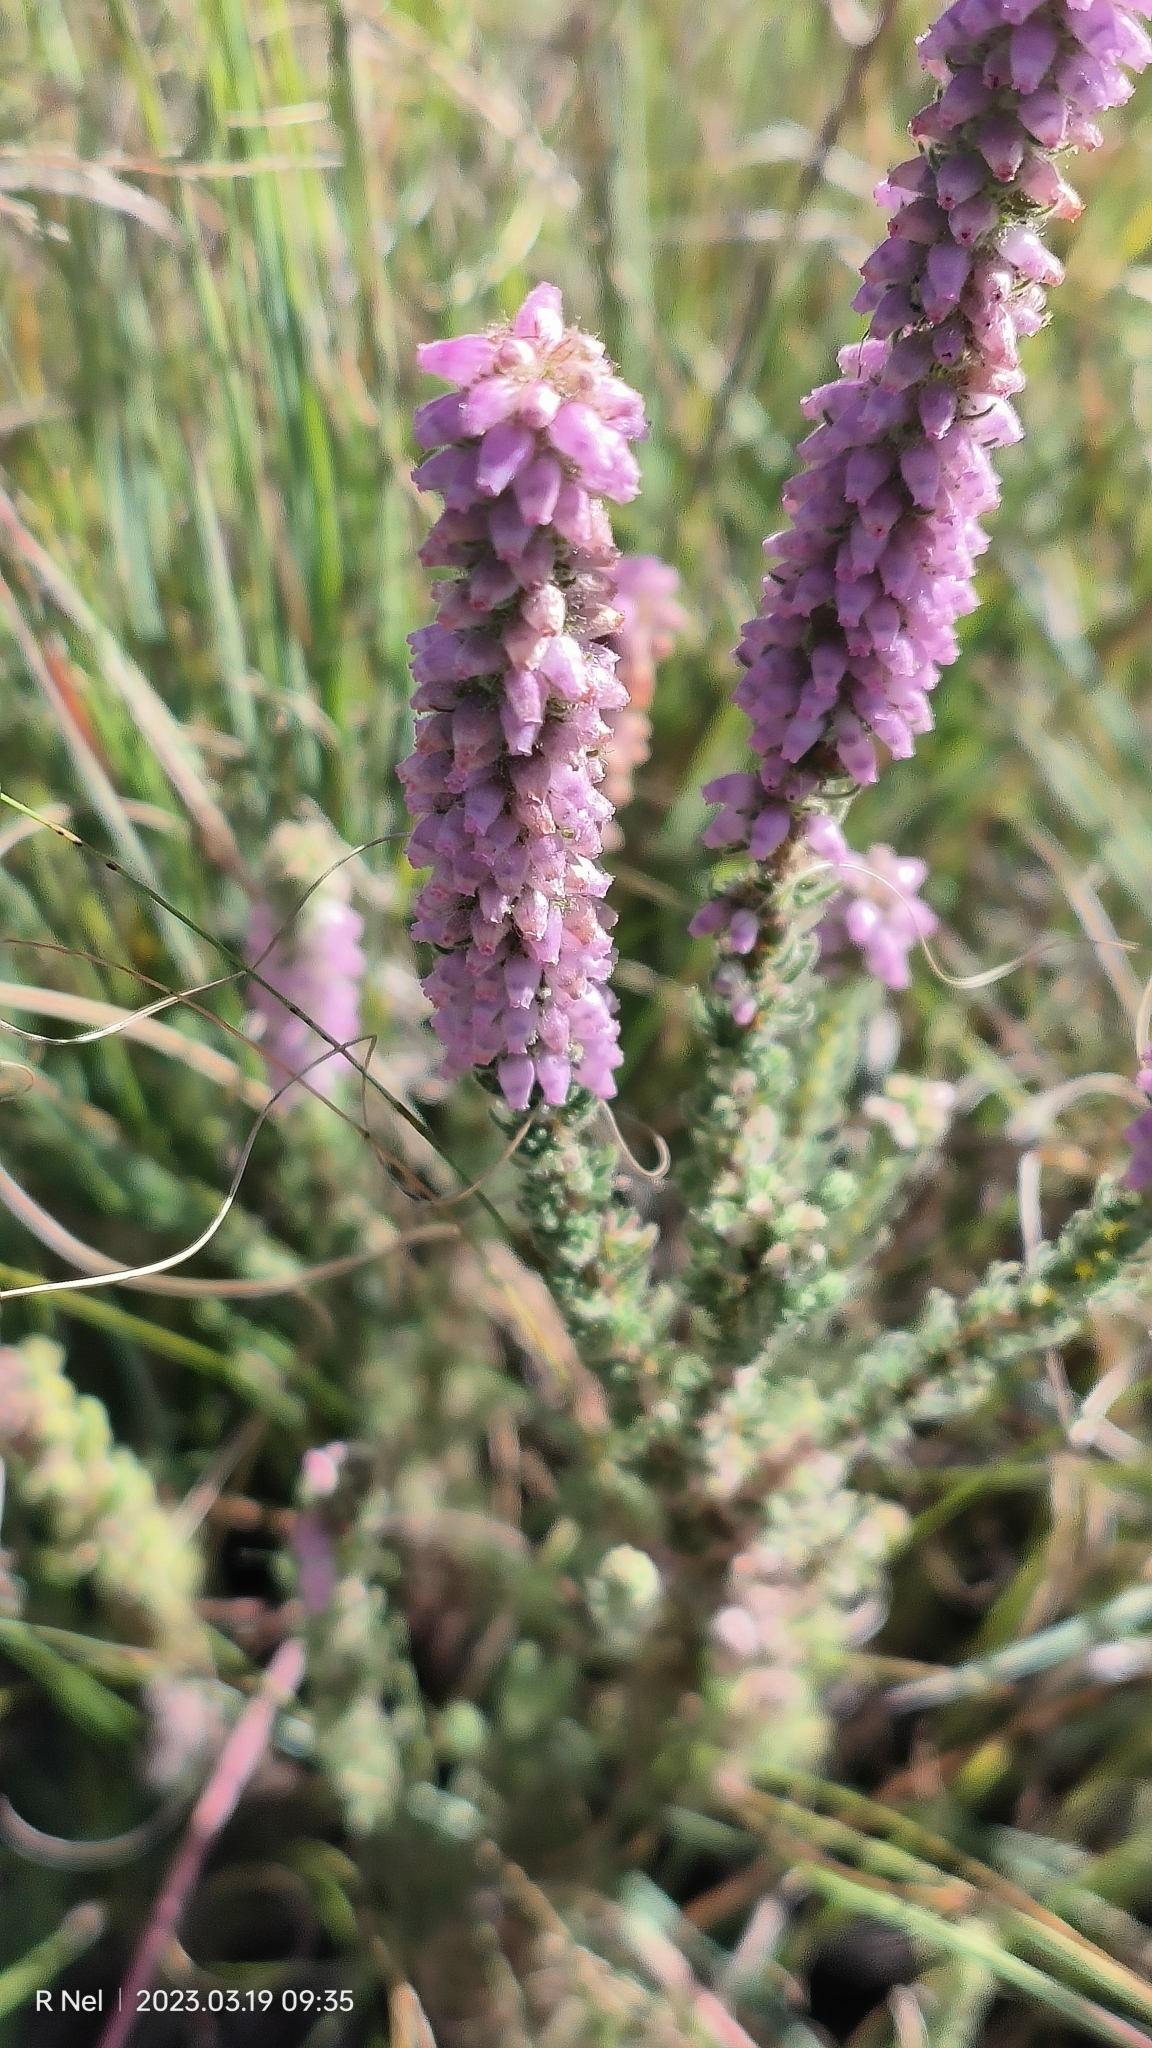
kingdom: Plantae
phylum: Tracheophyta
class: Magnoliopsida
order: Ericales
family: Ericaceae
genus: Erica
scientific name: Erica alopecurus
